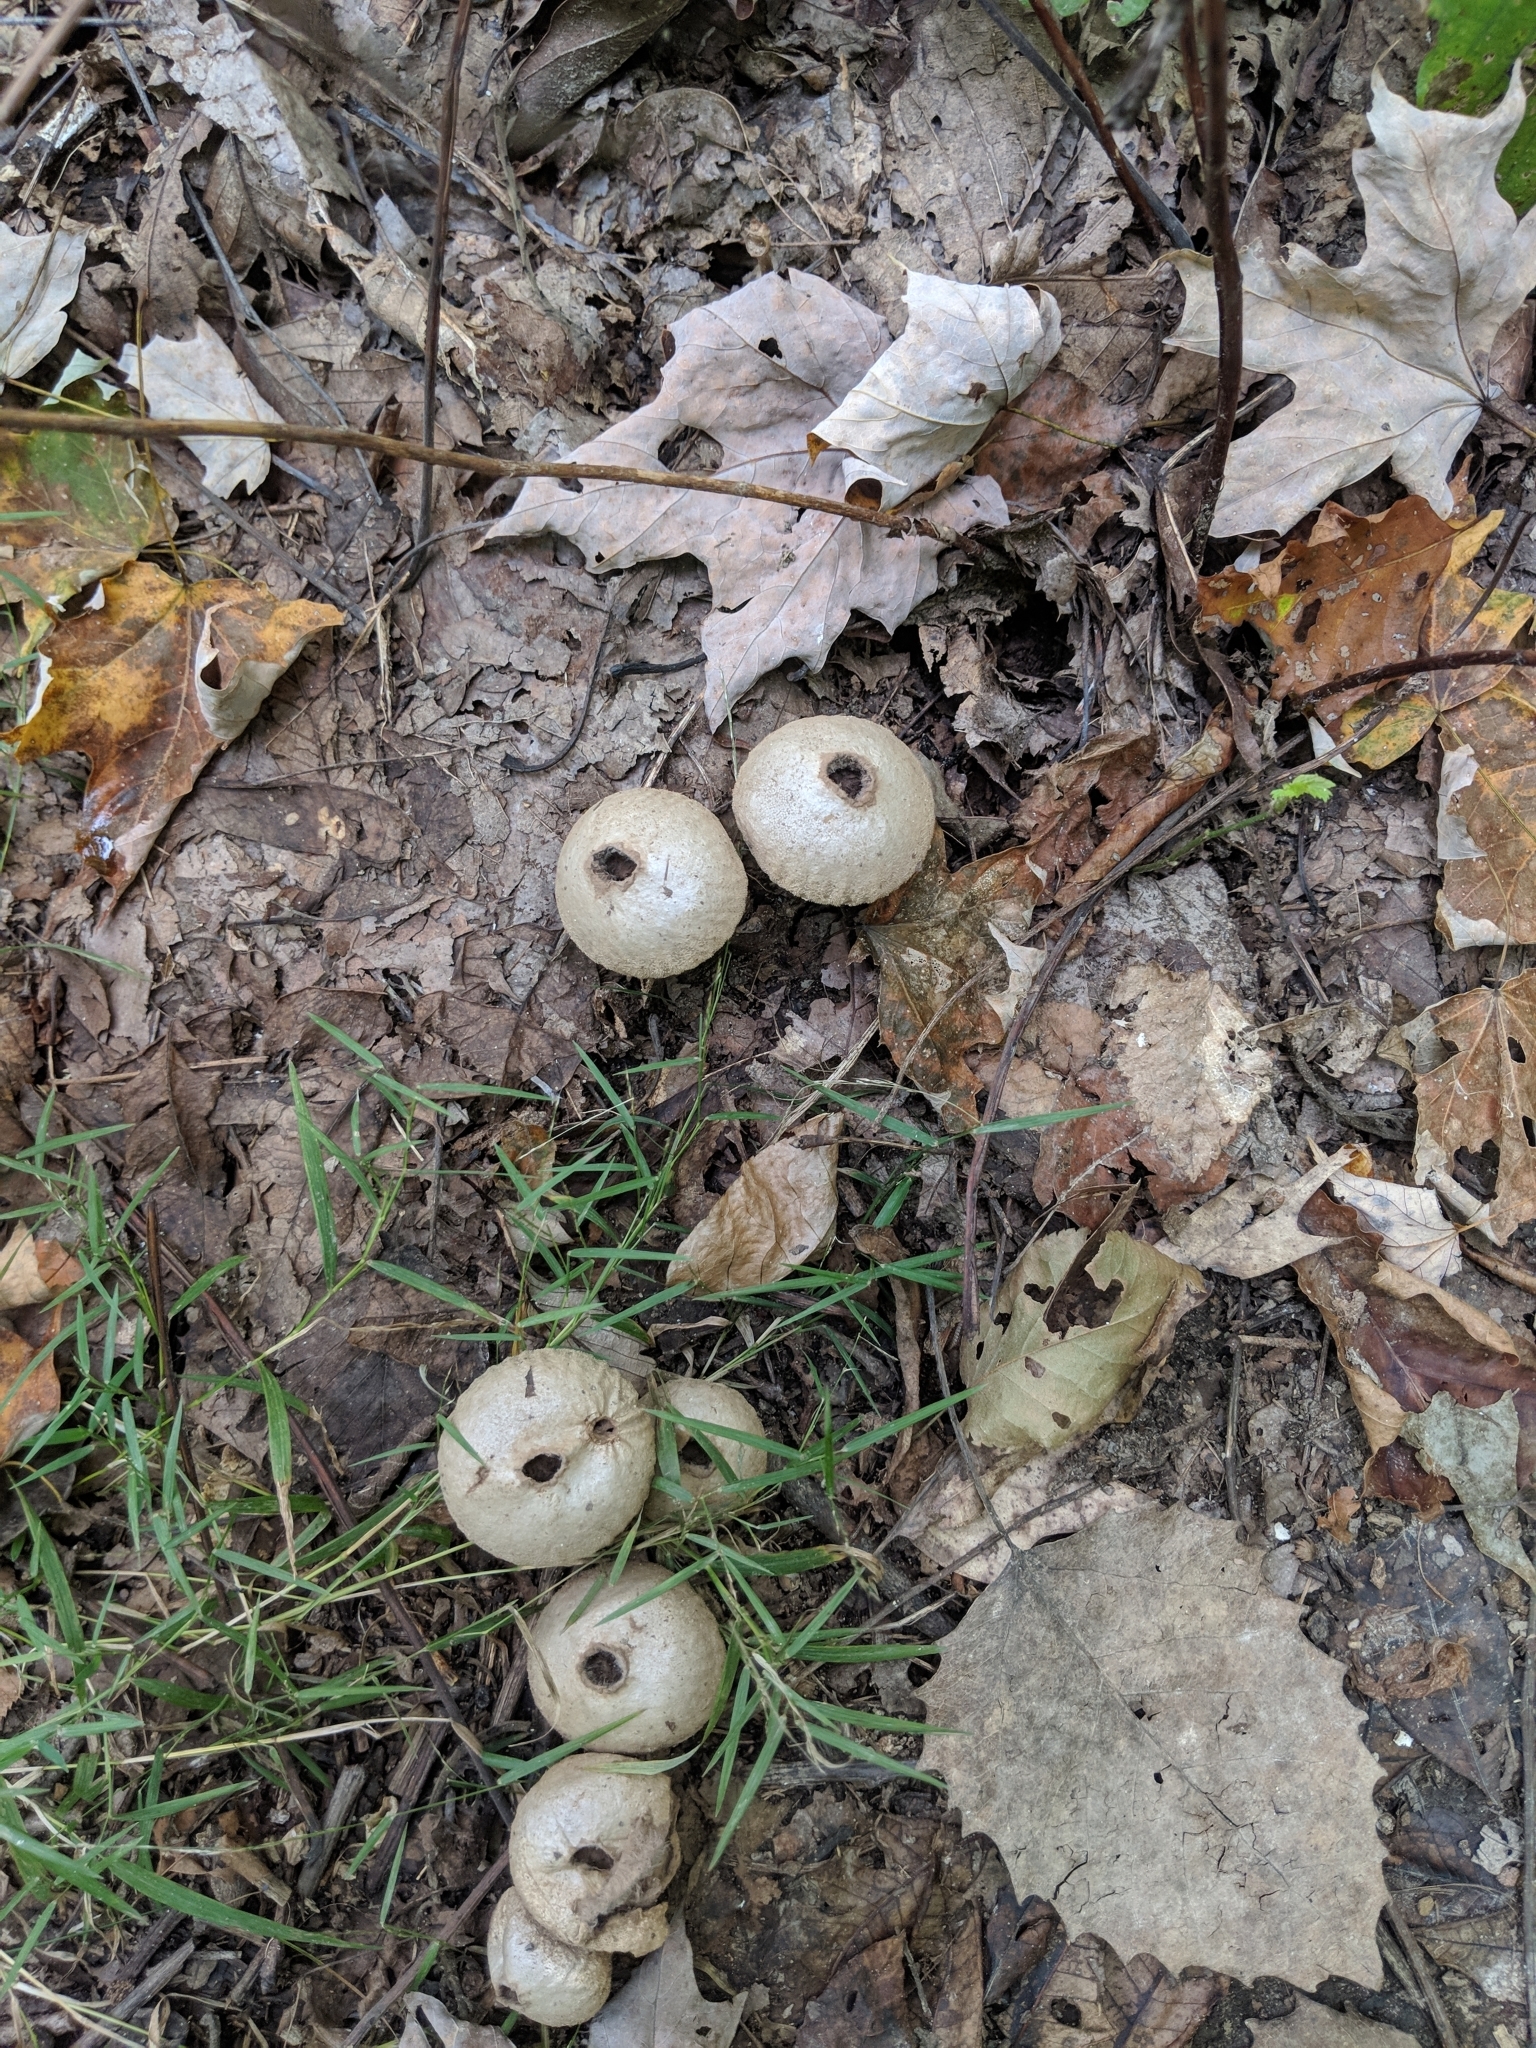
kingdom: Fungi
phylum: Basidiomycota
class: Agaricomycetes
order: Agaricales
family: Lycoperdaceae
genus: Apioperdon
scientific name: Apioperdon pyriforme
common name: Pear-shaped puffball
